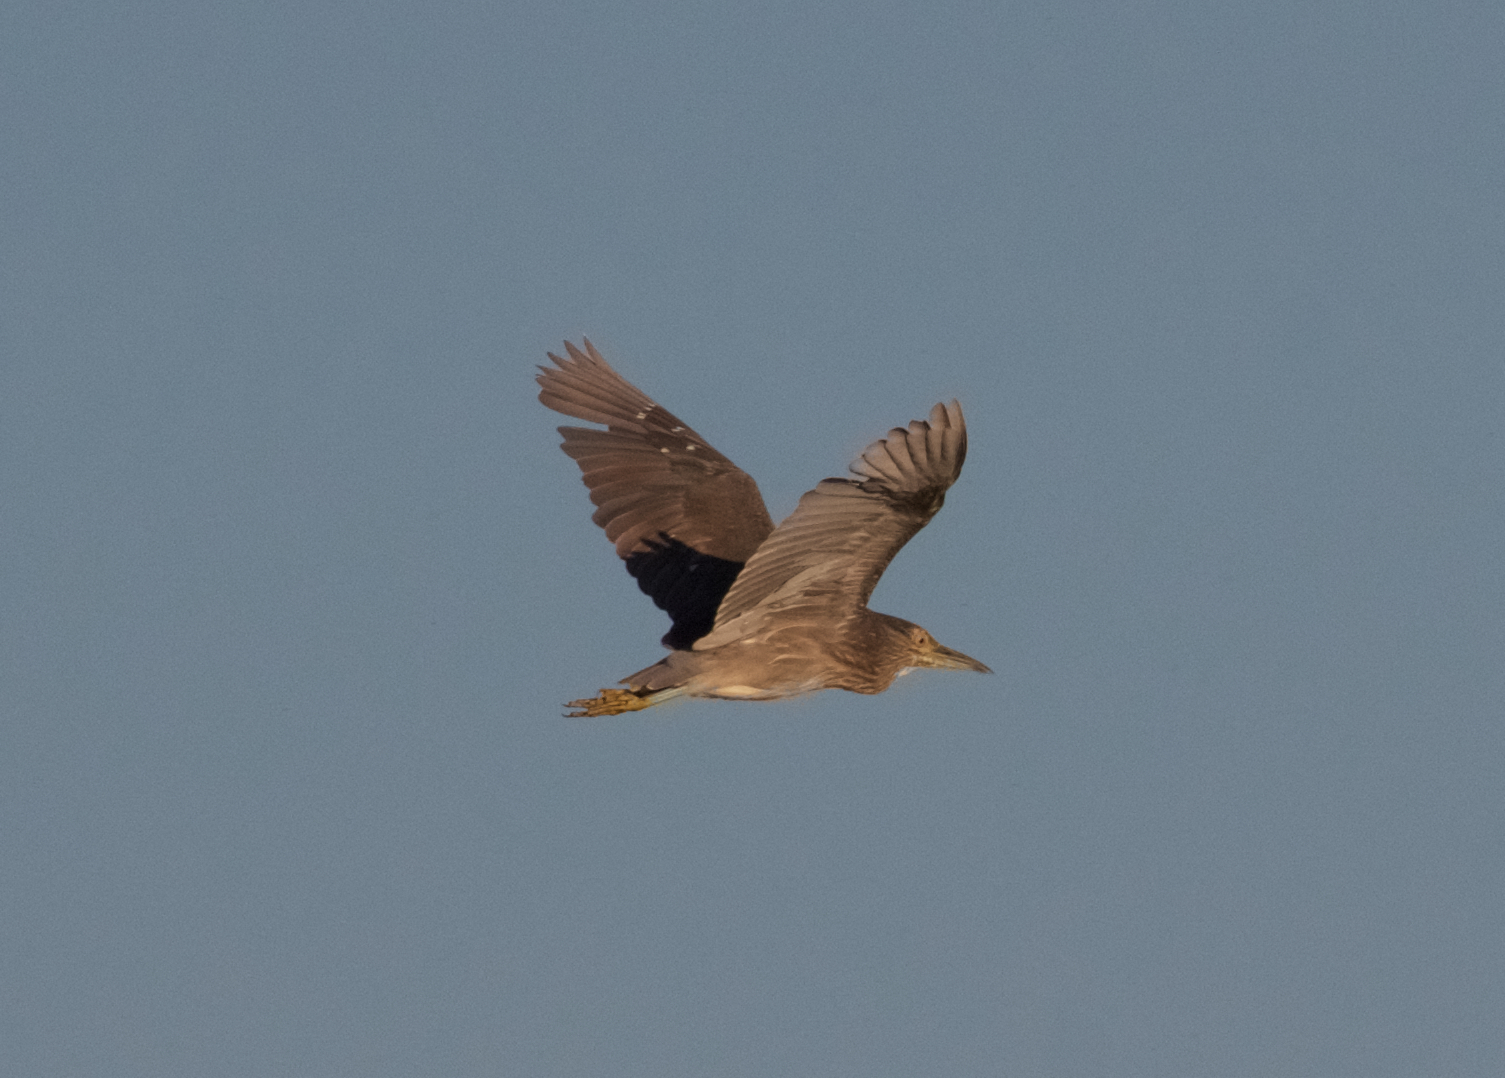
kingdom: Animalia
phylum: Chordata
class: Aves
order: Pelecaniformes
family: Ardeidae
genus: Nycticorax
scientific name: Nycticorax nycticorax
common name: Black-crowned night heron
